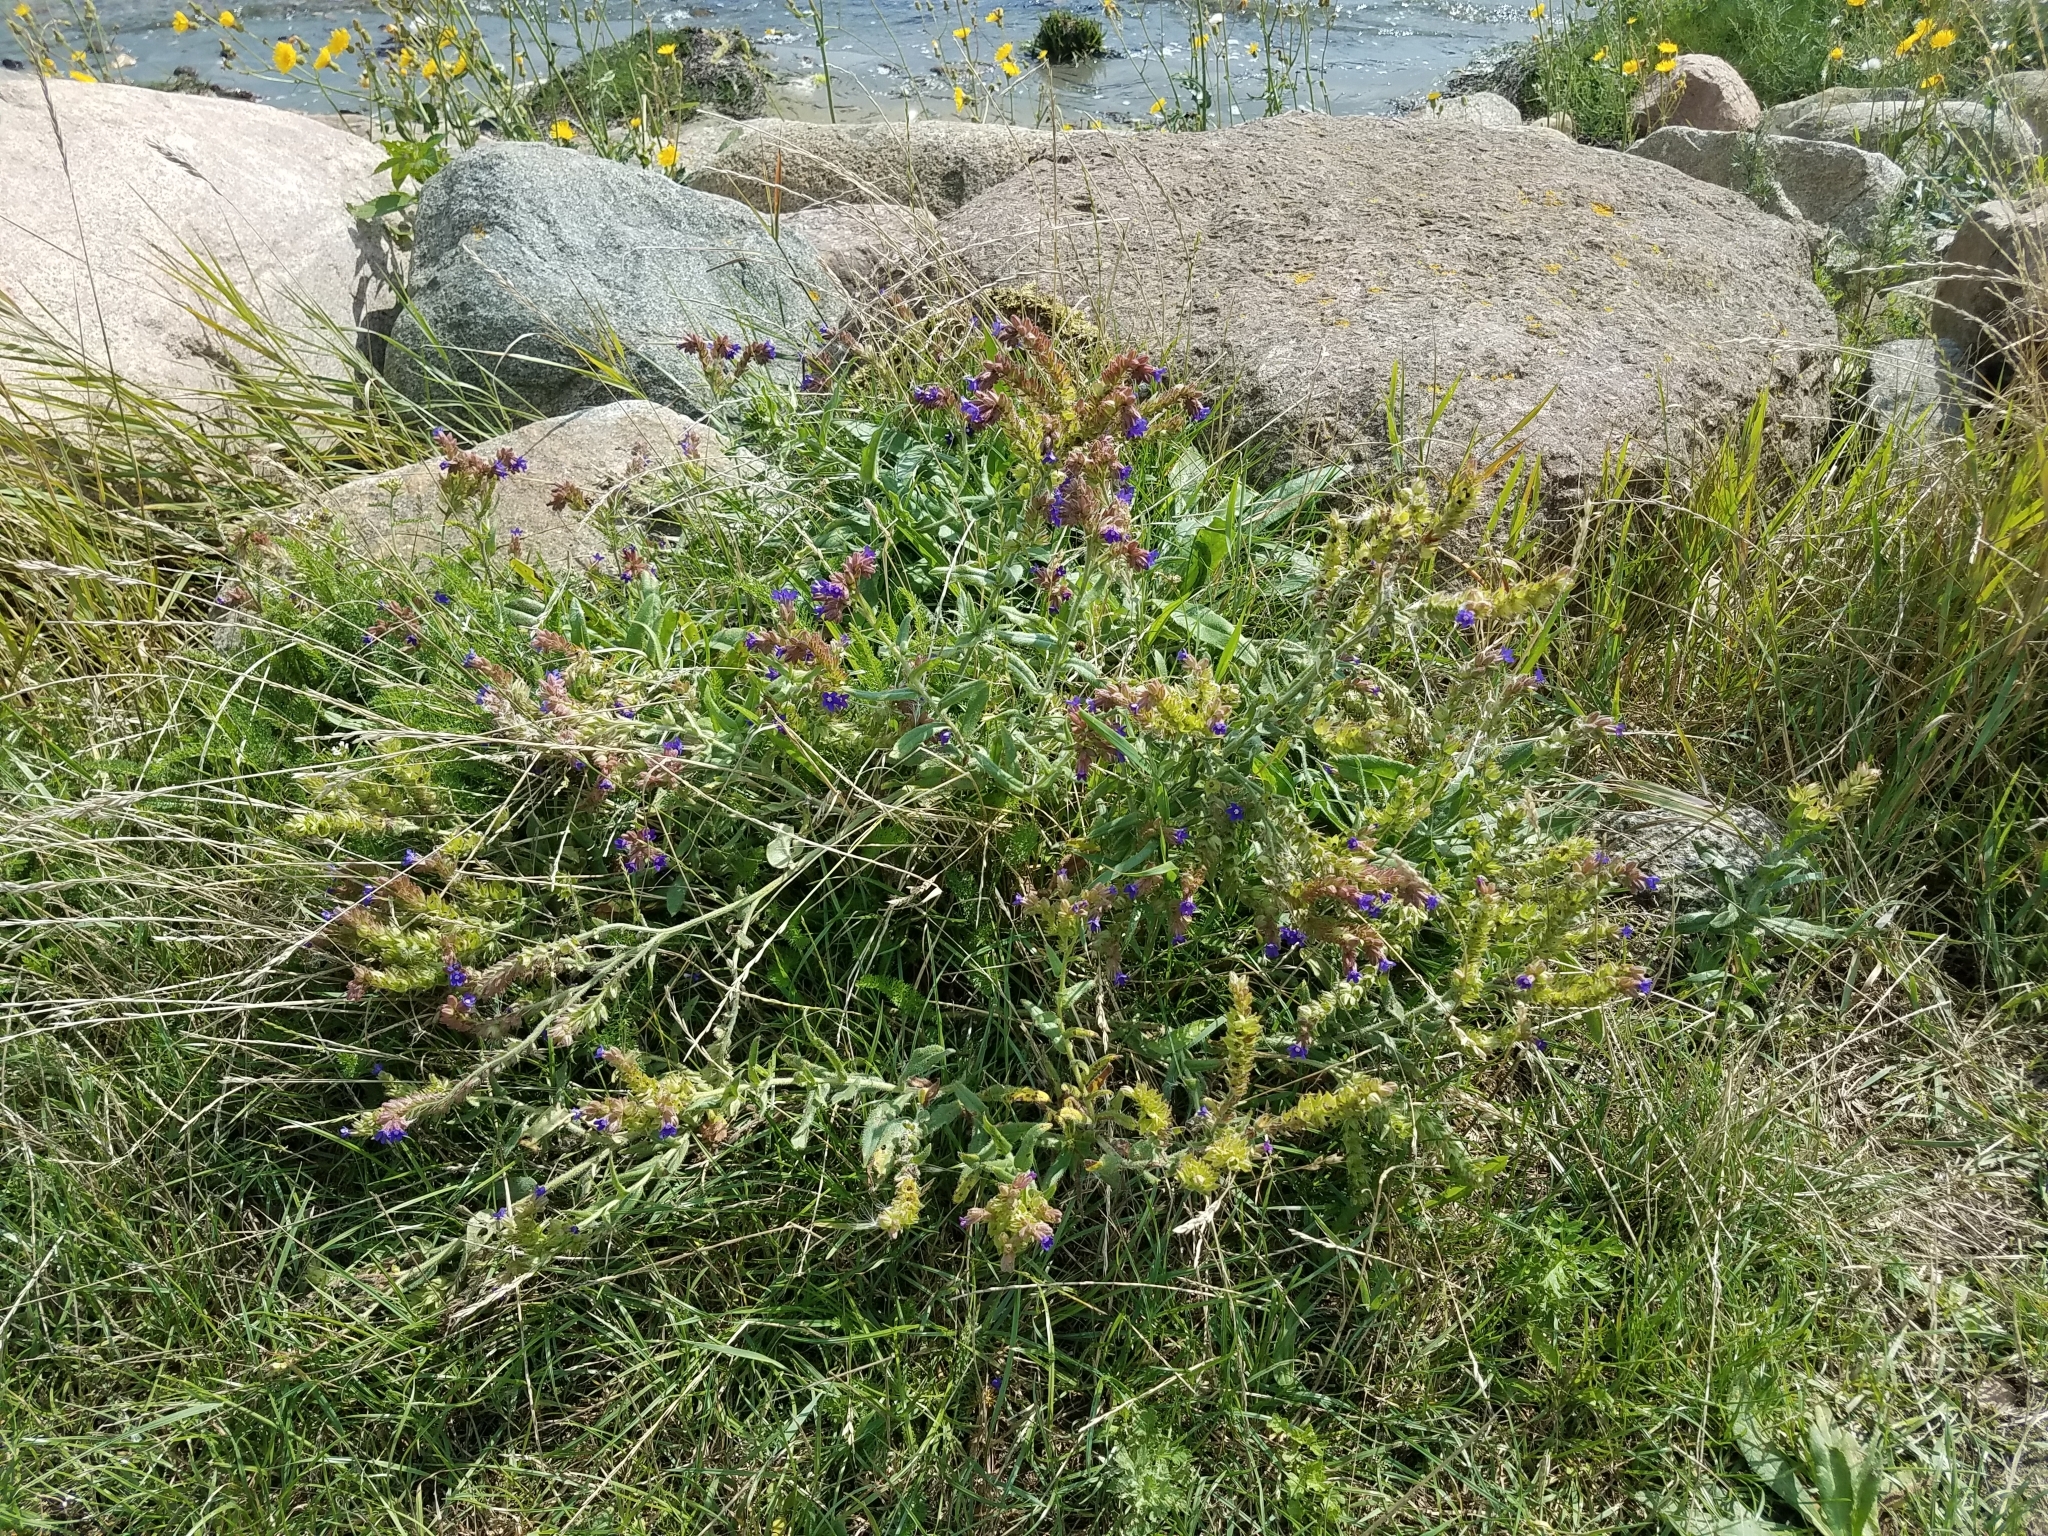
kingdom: Plantae
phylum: Tracheophyta
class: Magnoliopsida
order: Boraginales
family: Boraginaceae
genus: Anchusa
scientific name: Anchusa officinalis
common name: Alkanet
